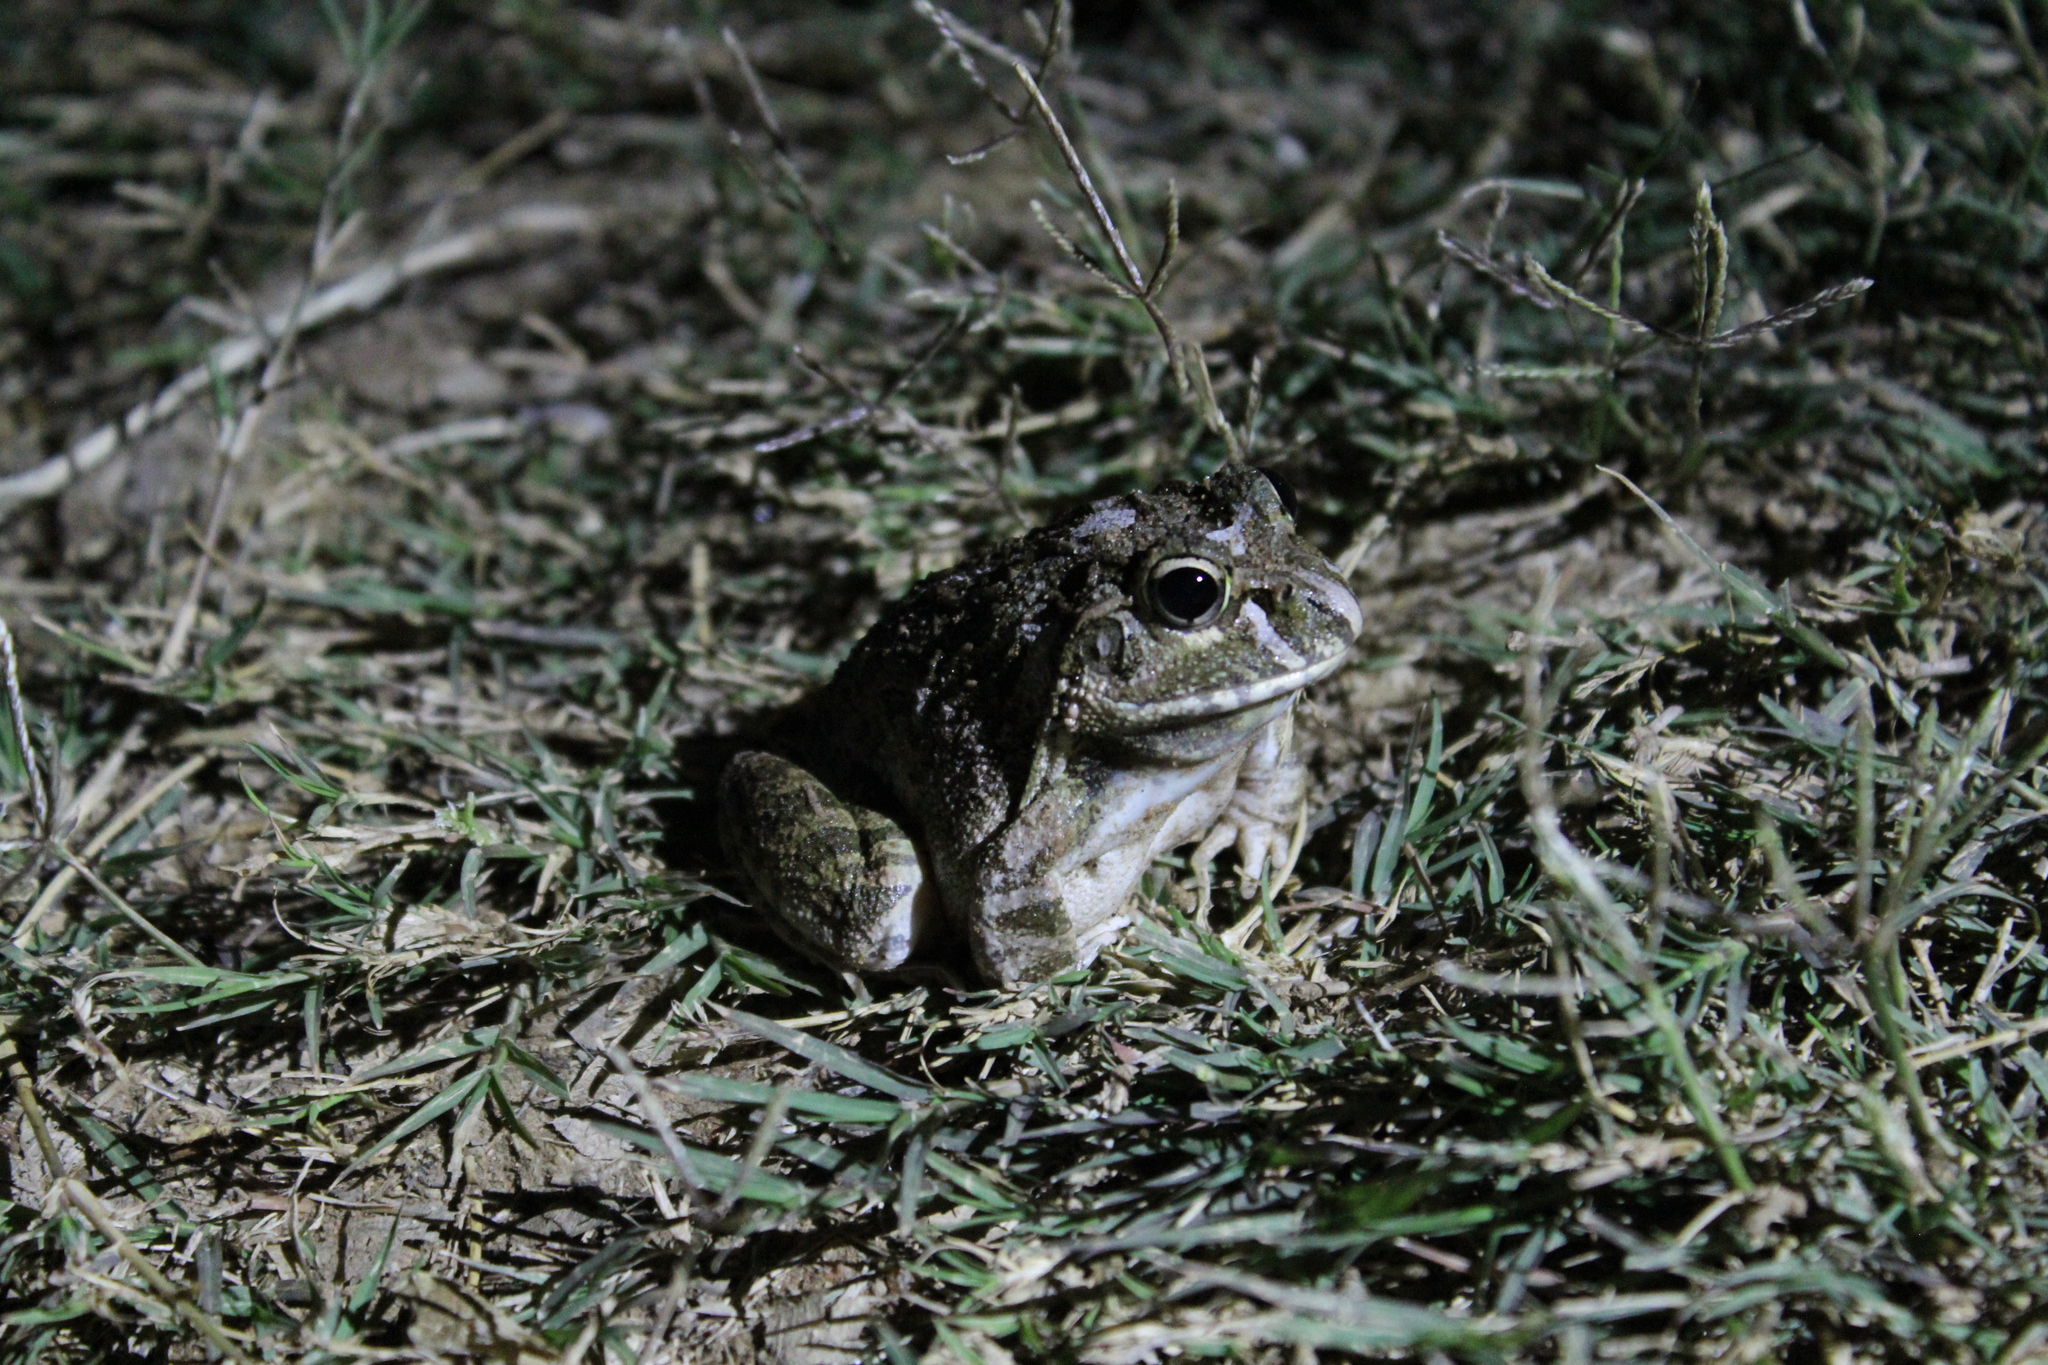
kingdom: Animalia
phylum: Chordata
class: Amphibia
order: Anura
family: Mantellidae
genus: Laliostoma
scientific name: Laliostoma labrosum
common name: Madagascar bullfrog
